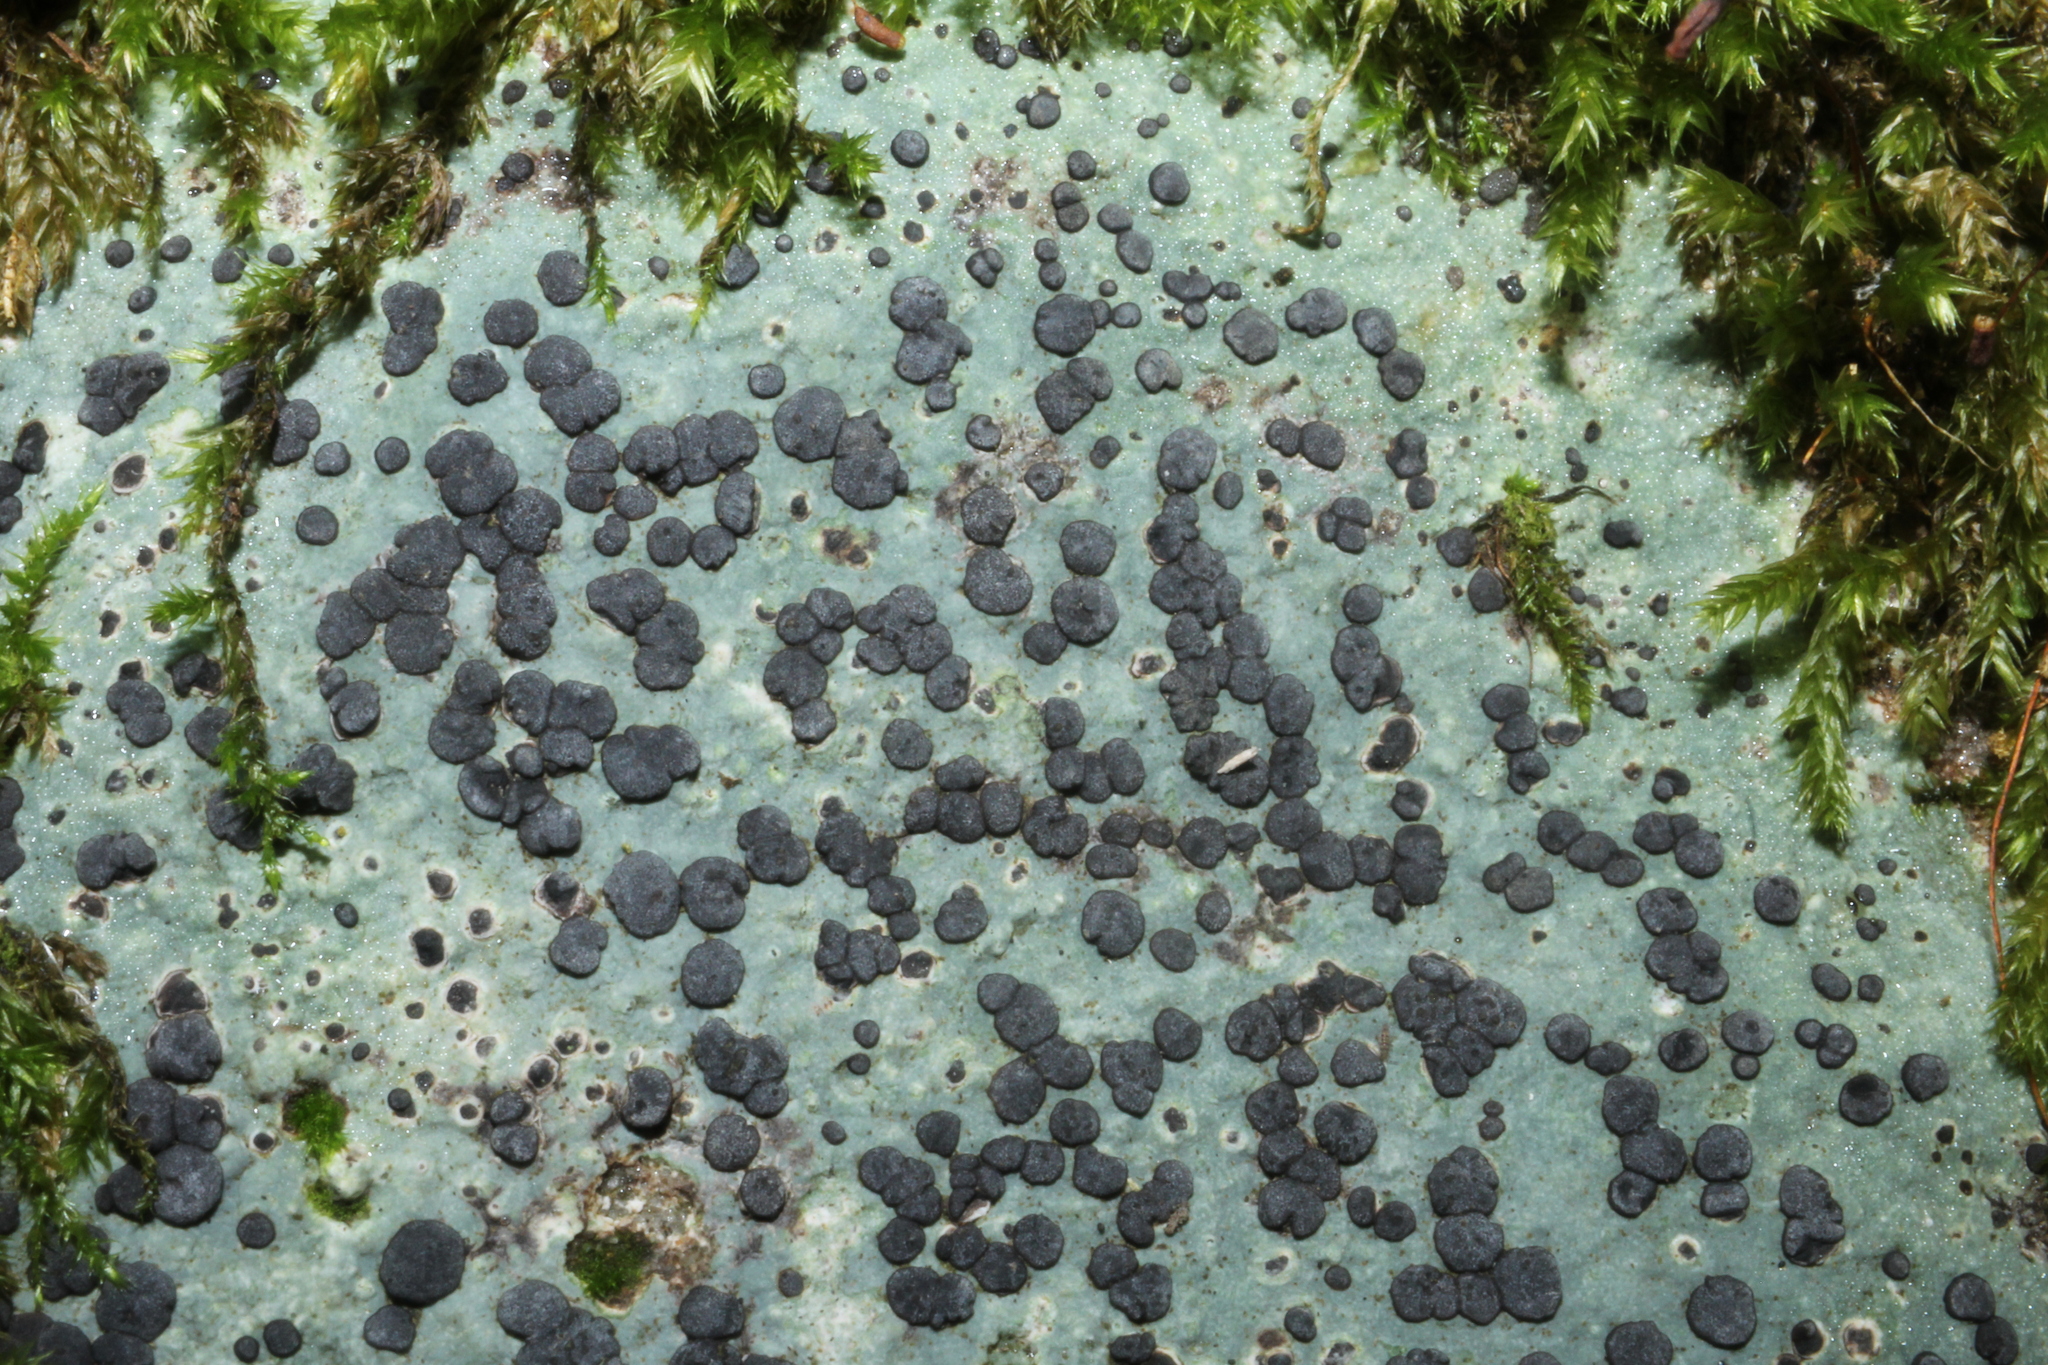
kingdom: Fungi
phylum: Ascomycota
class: Lecanoromycetes
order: Lecideales
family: Lecideaceae
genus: Porpidia
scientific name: Porpidia albocaerulescens
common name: Smokey-eyed boulder lichen
